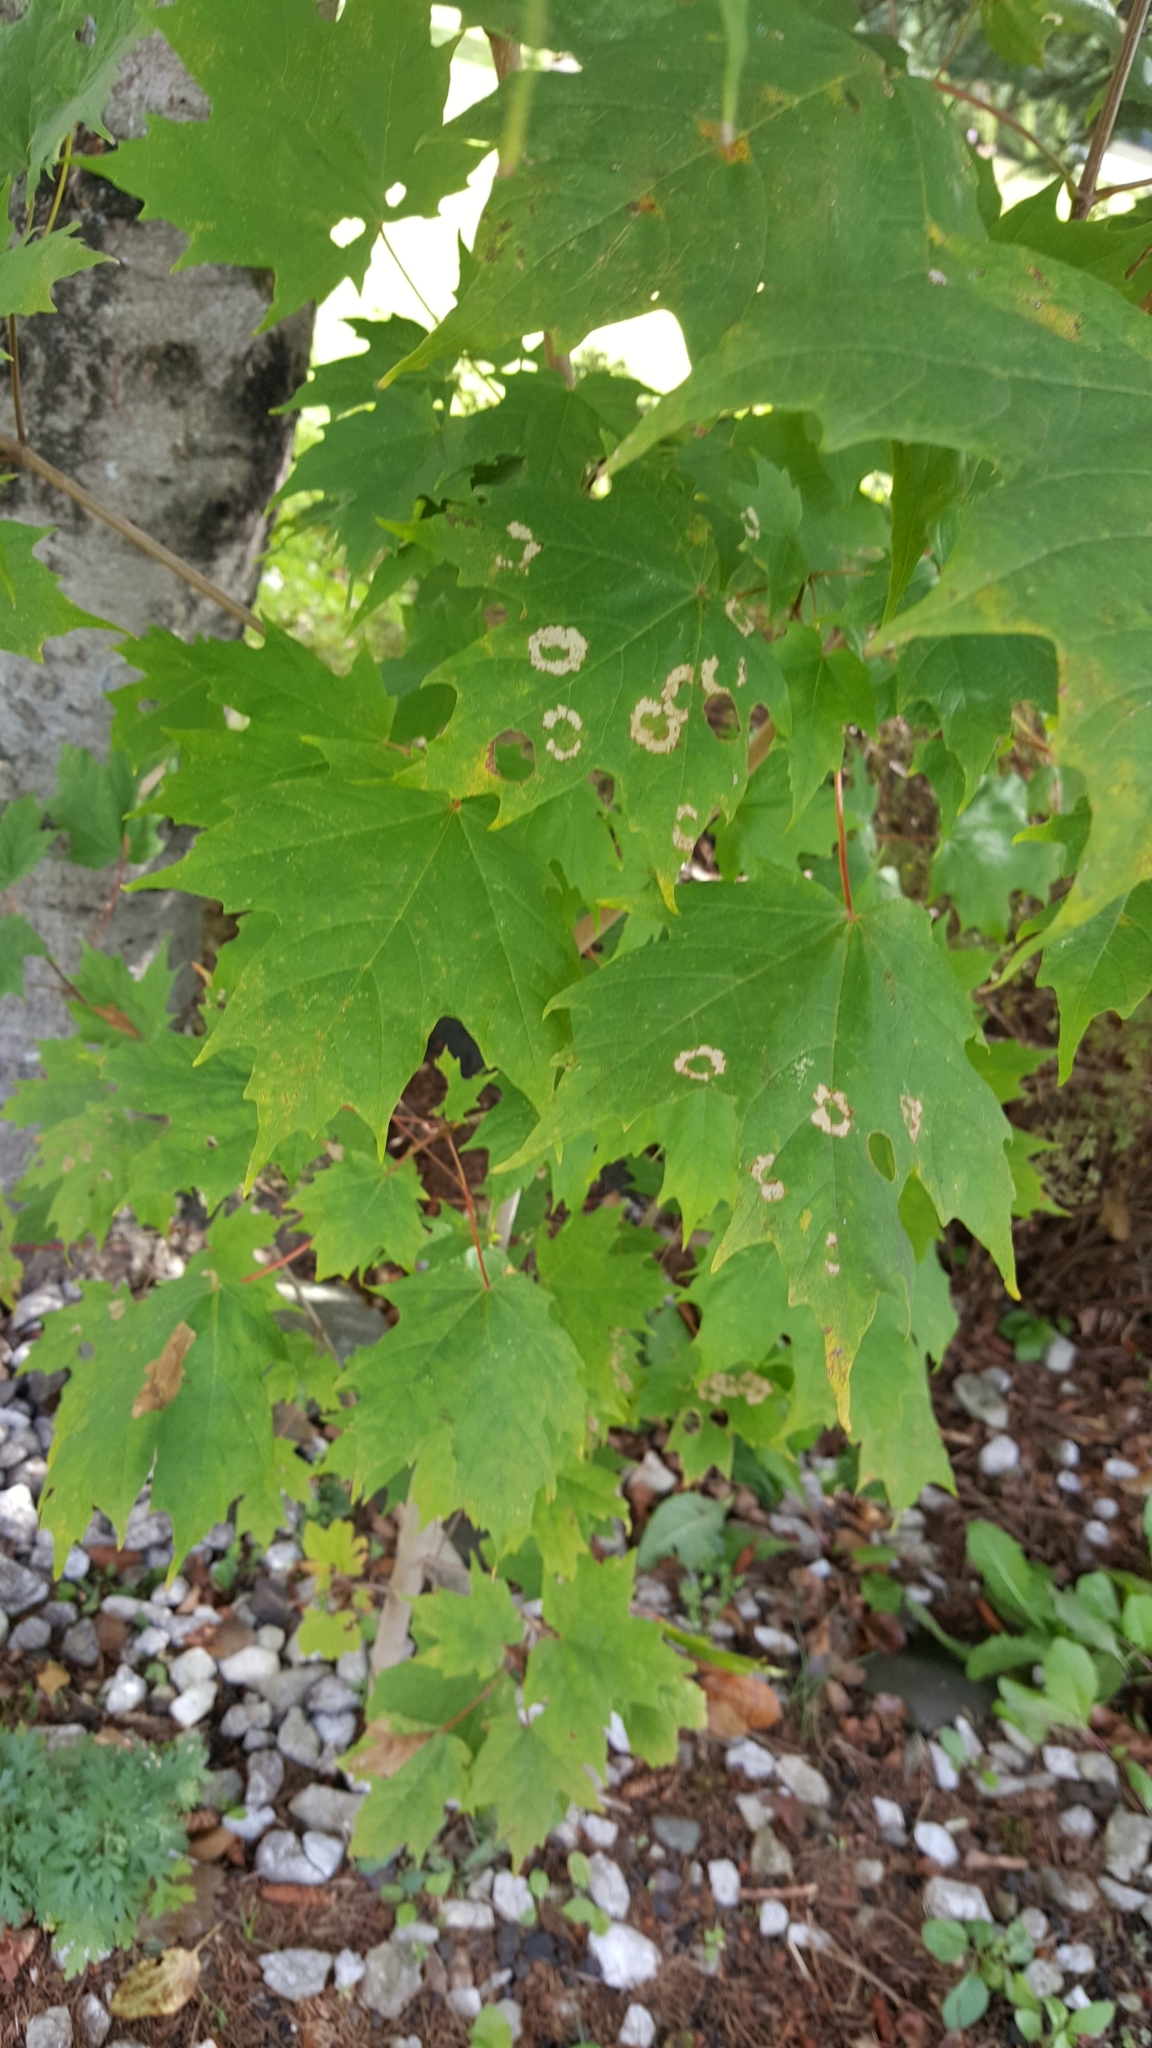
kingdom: Animalia
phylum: Arthropoda
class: Insecta
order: Lepidoptera
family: Incurvariidae
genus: Paraclemensia
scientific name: Paraclemensia acerifoliella
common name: Maple leafcutter
